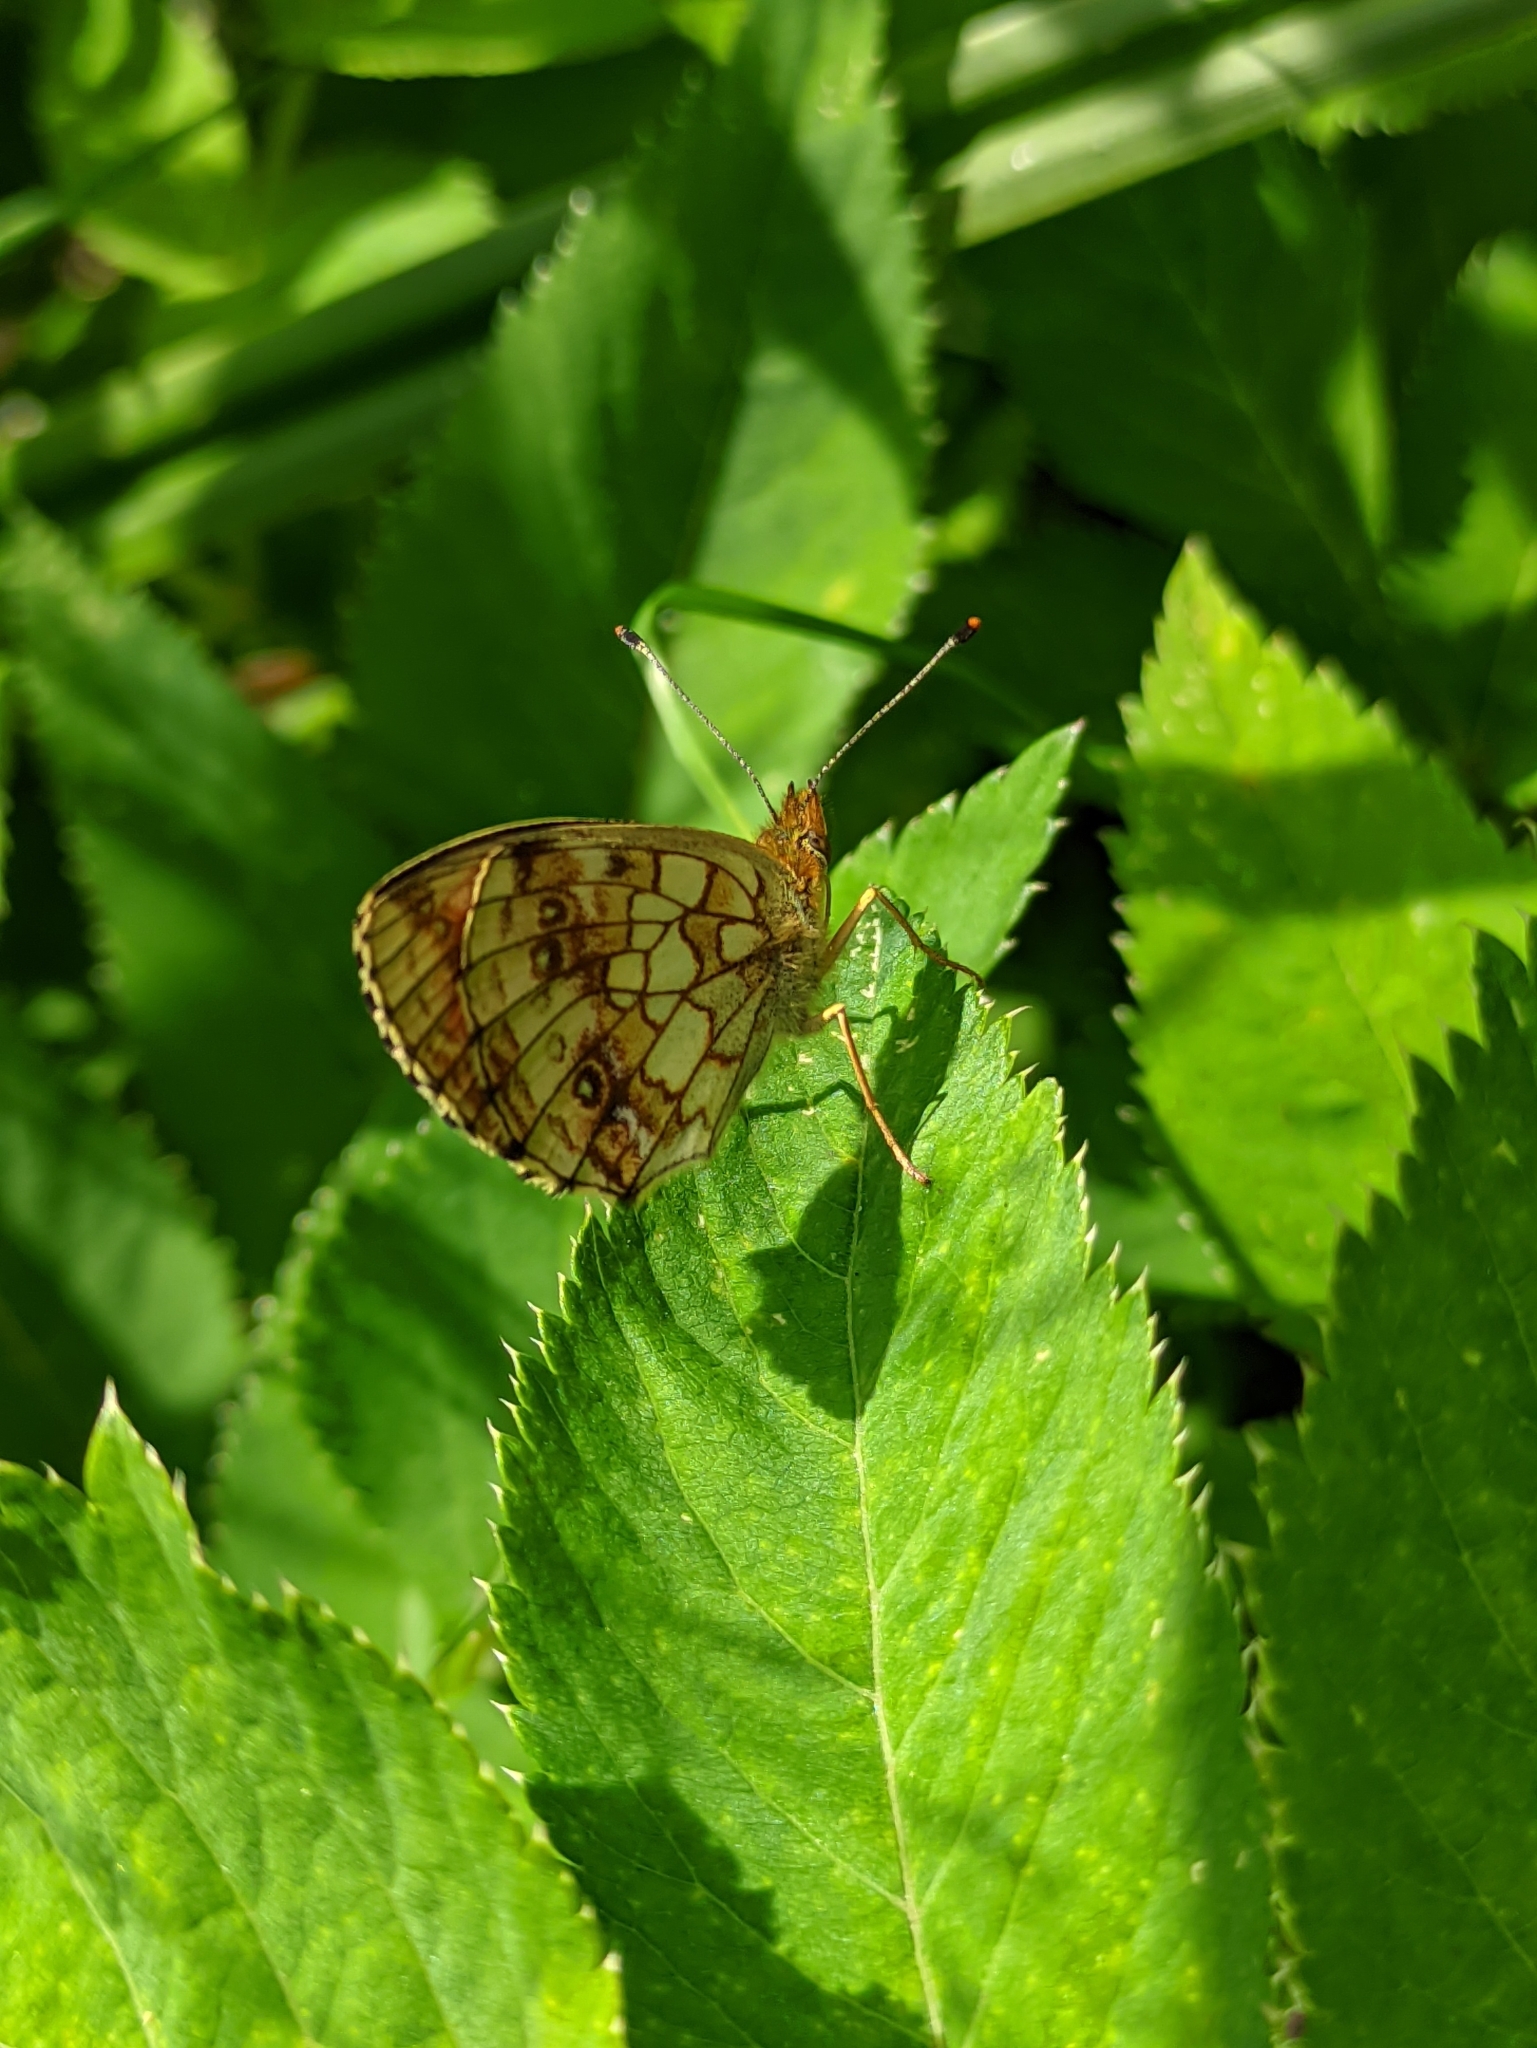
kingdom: Animalia
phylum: Arthropoda
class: Insecta
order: Lepidoptera
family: Nymphalidae
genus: Brenthis
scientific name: Brenthis ino
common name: Lesser marbled fritillary
